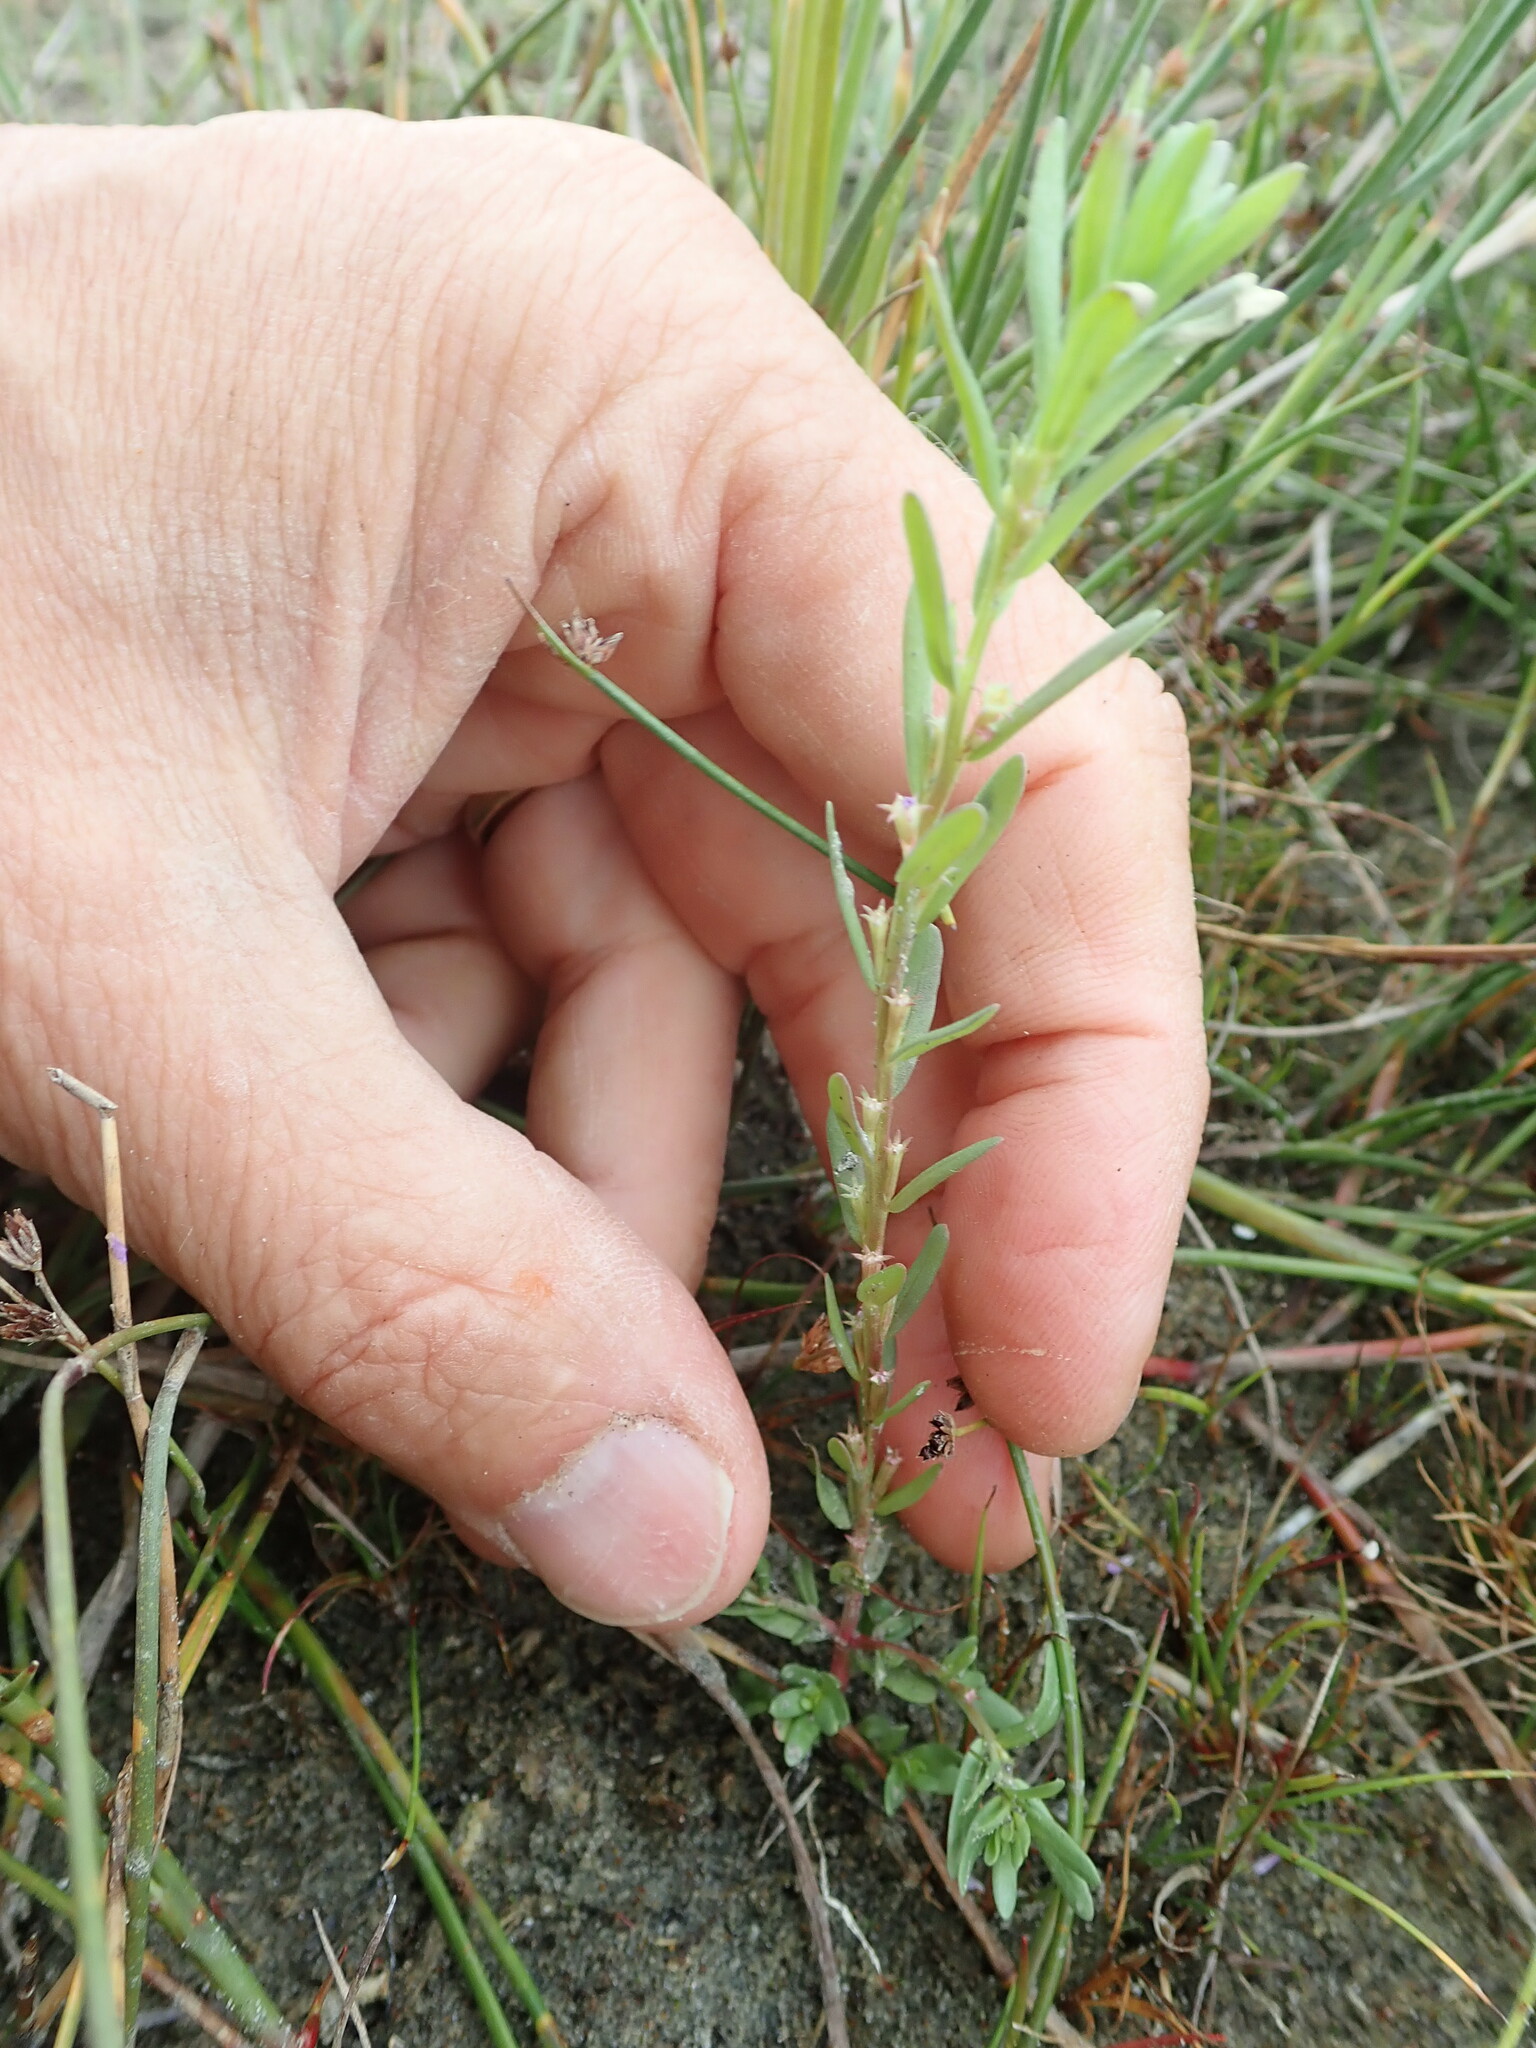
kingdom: Plantae
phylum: Tracheophyta
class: Magnoliopsida
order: Myrtales
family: Lythraceae
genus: Lythrum
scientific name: Lythrum hyssopifolia
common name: Grass-poly
